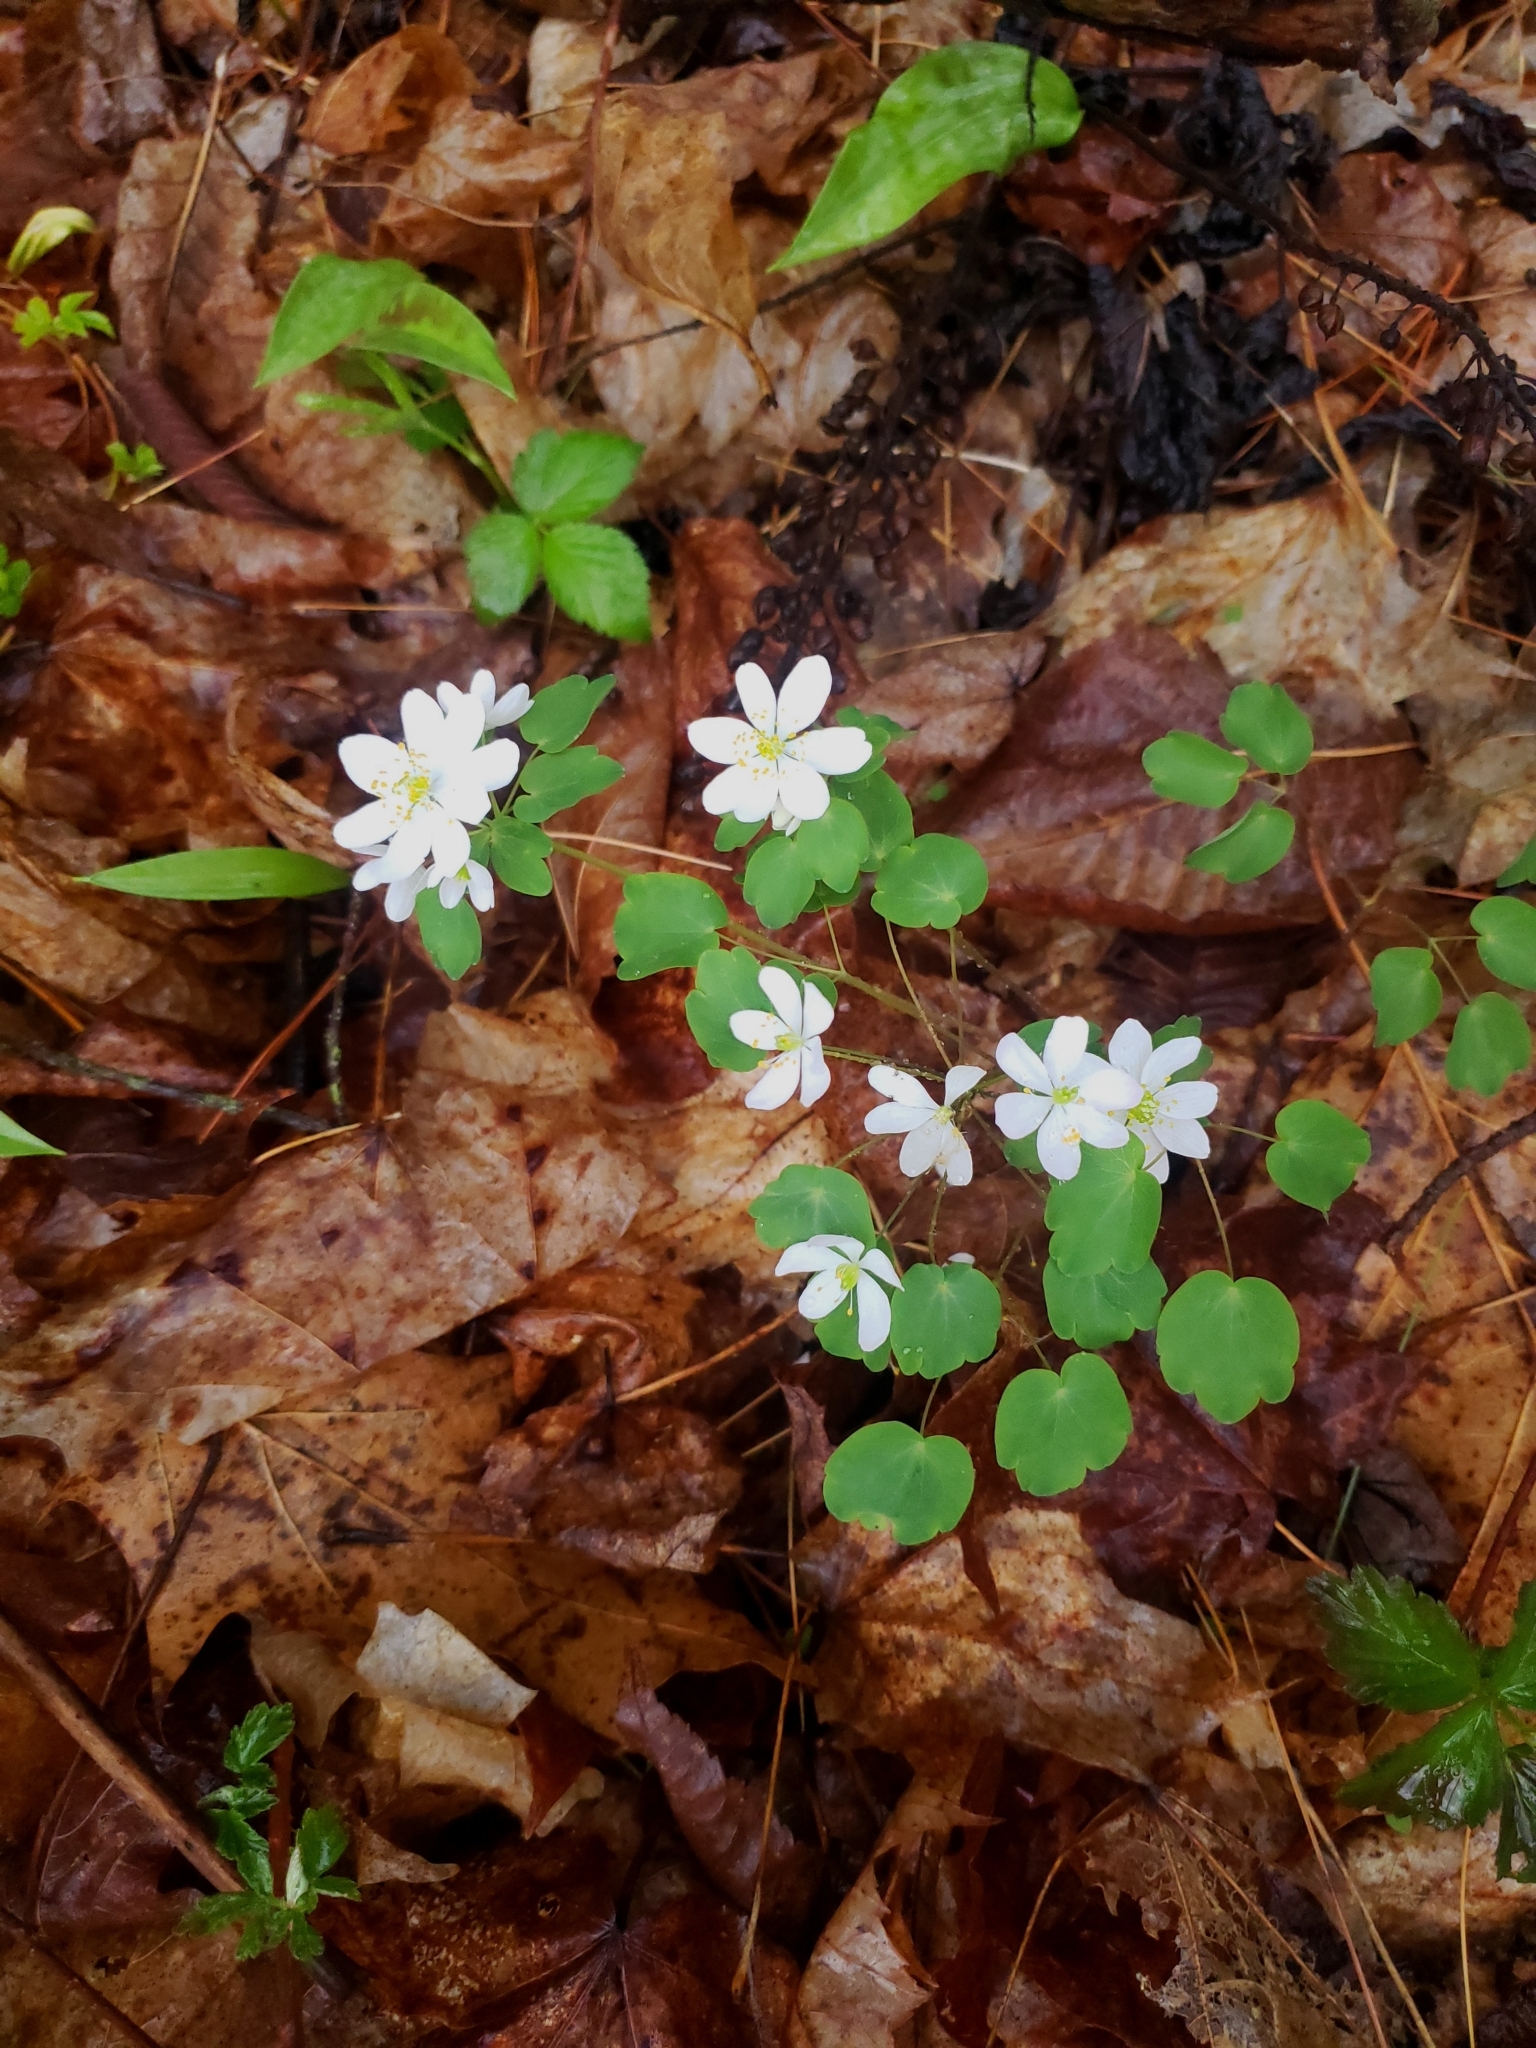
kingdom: Plantae
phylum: Tracheophyta
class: Magnoliopsida
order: Ranunculales
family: Ranunculaceae
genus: Thalictrum
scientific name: Thalictrum thalictroides
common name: Rue-anemone
